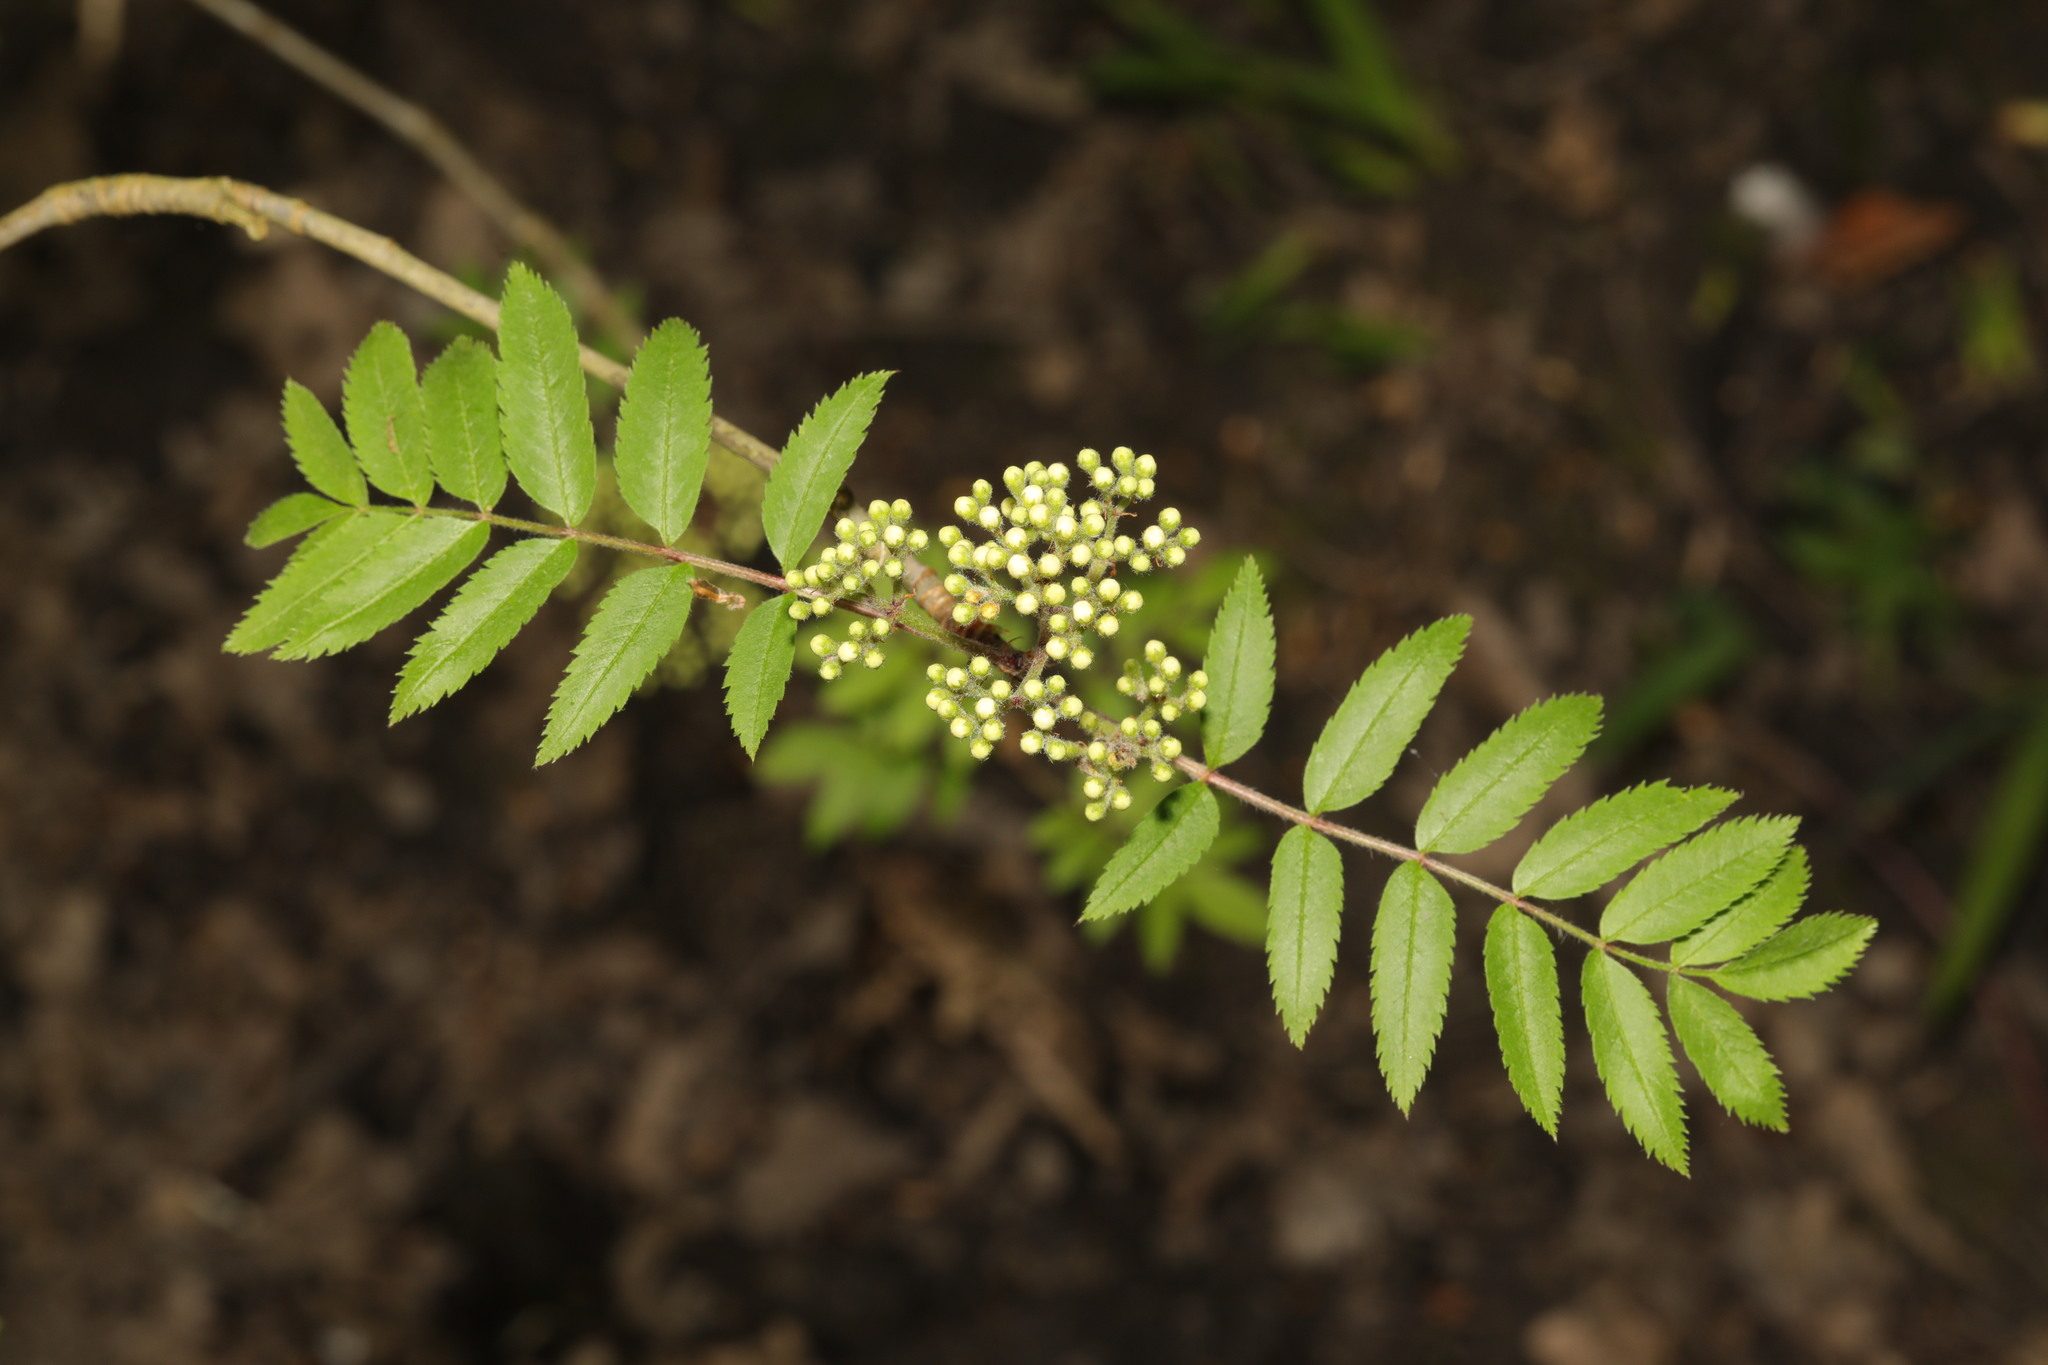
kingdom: Plantae
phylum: Tracheophyta
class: Magnoliopsida
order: Rosales
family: Rosaceae
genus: Sorbus
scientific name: Sorbus aucuparia
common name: Rowan
